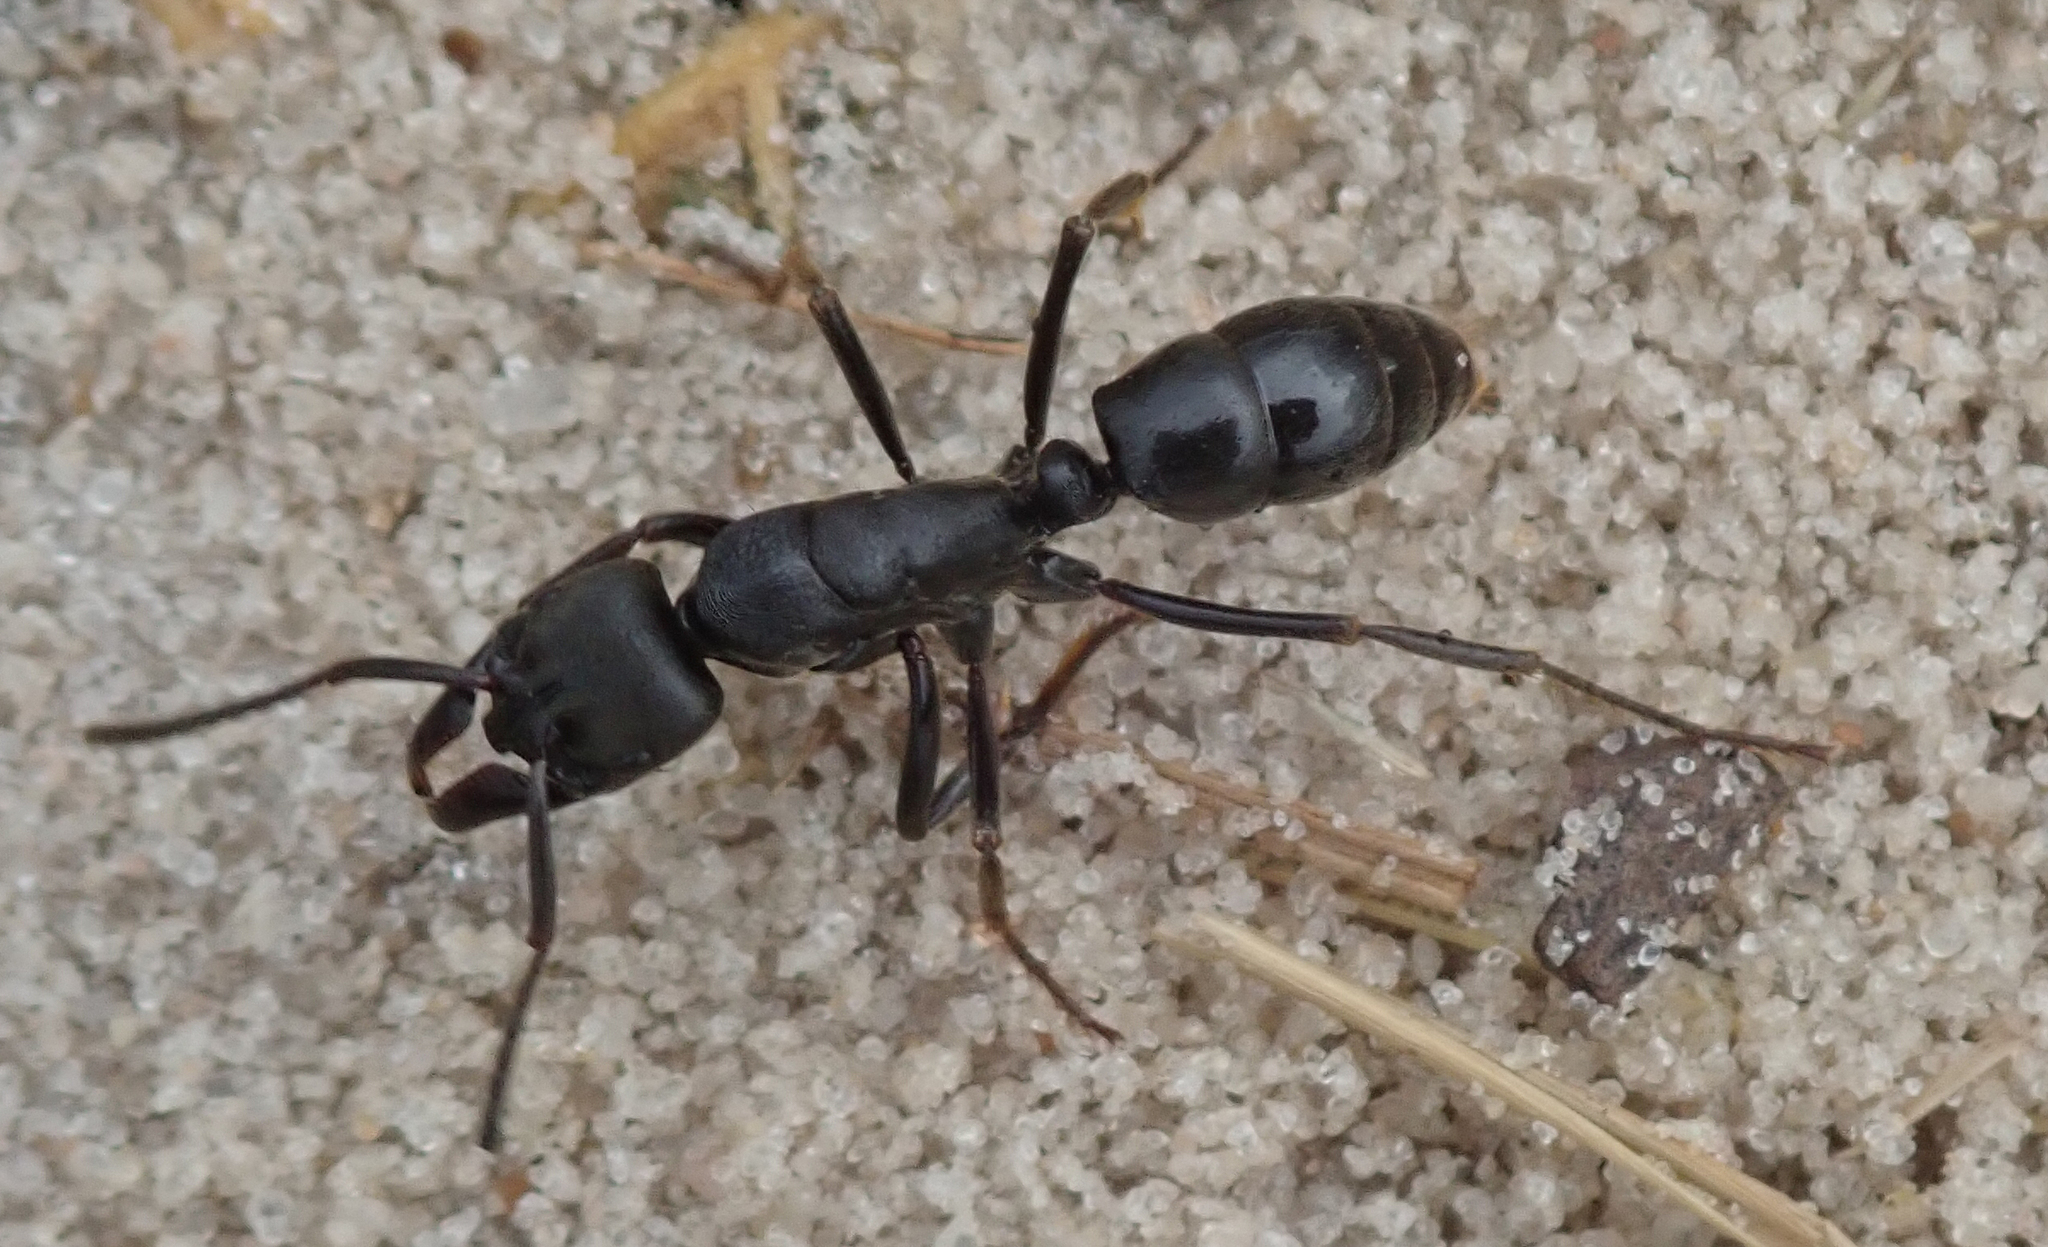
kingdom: Animalia
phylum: Arthropoda
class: Insecta
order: Hymenoptera
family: Formicidae
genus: Paltothyreus
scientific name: Paltothyreus tarsatus
